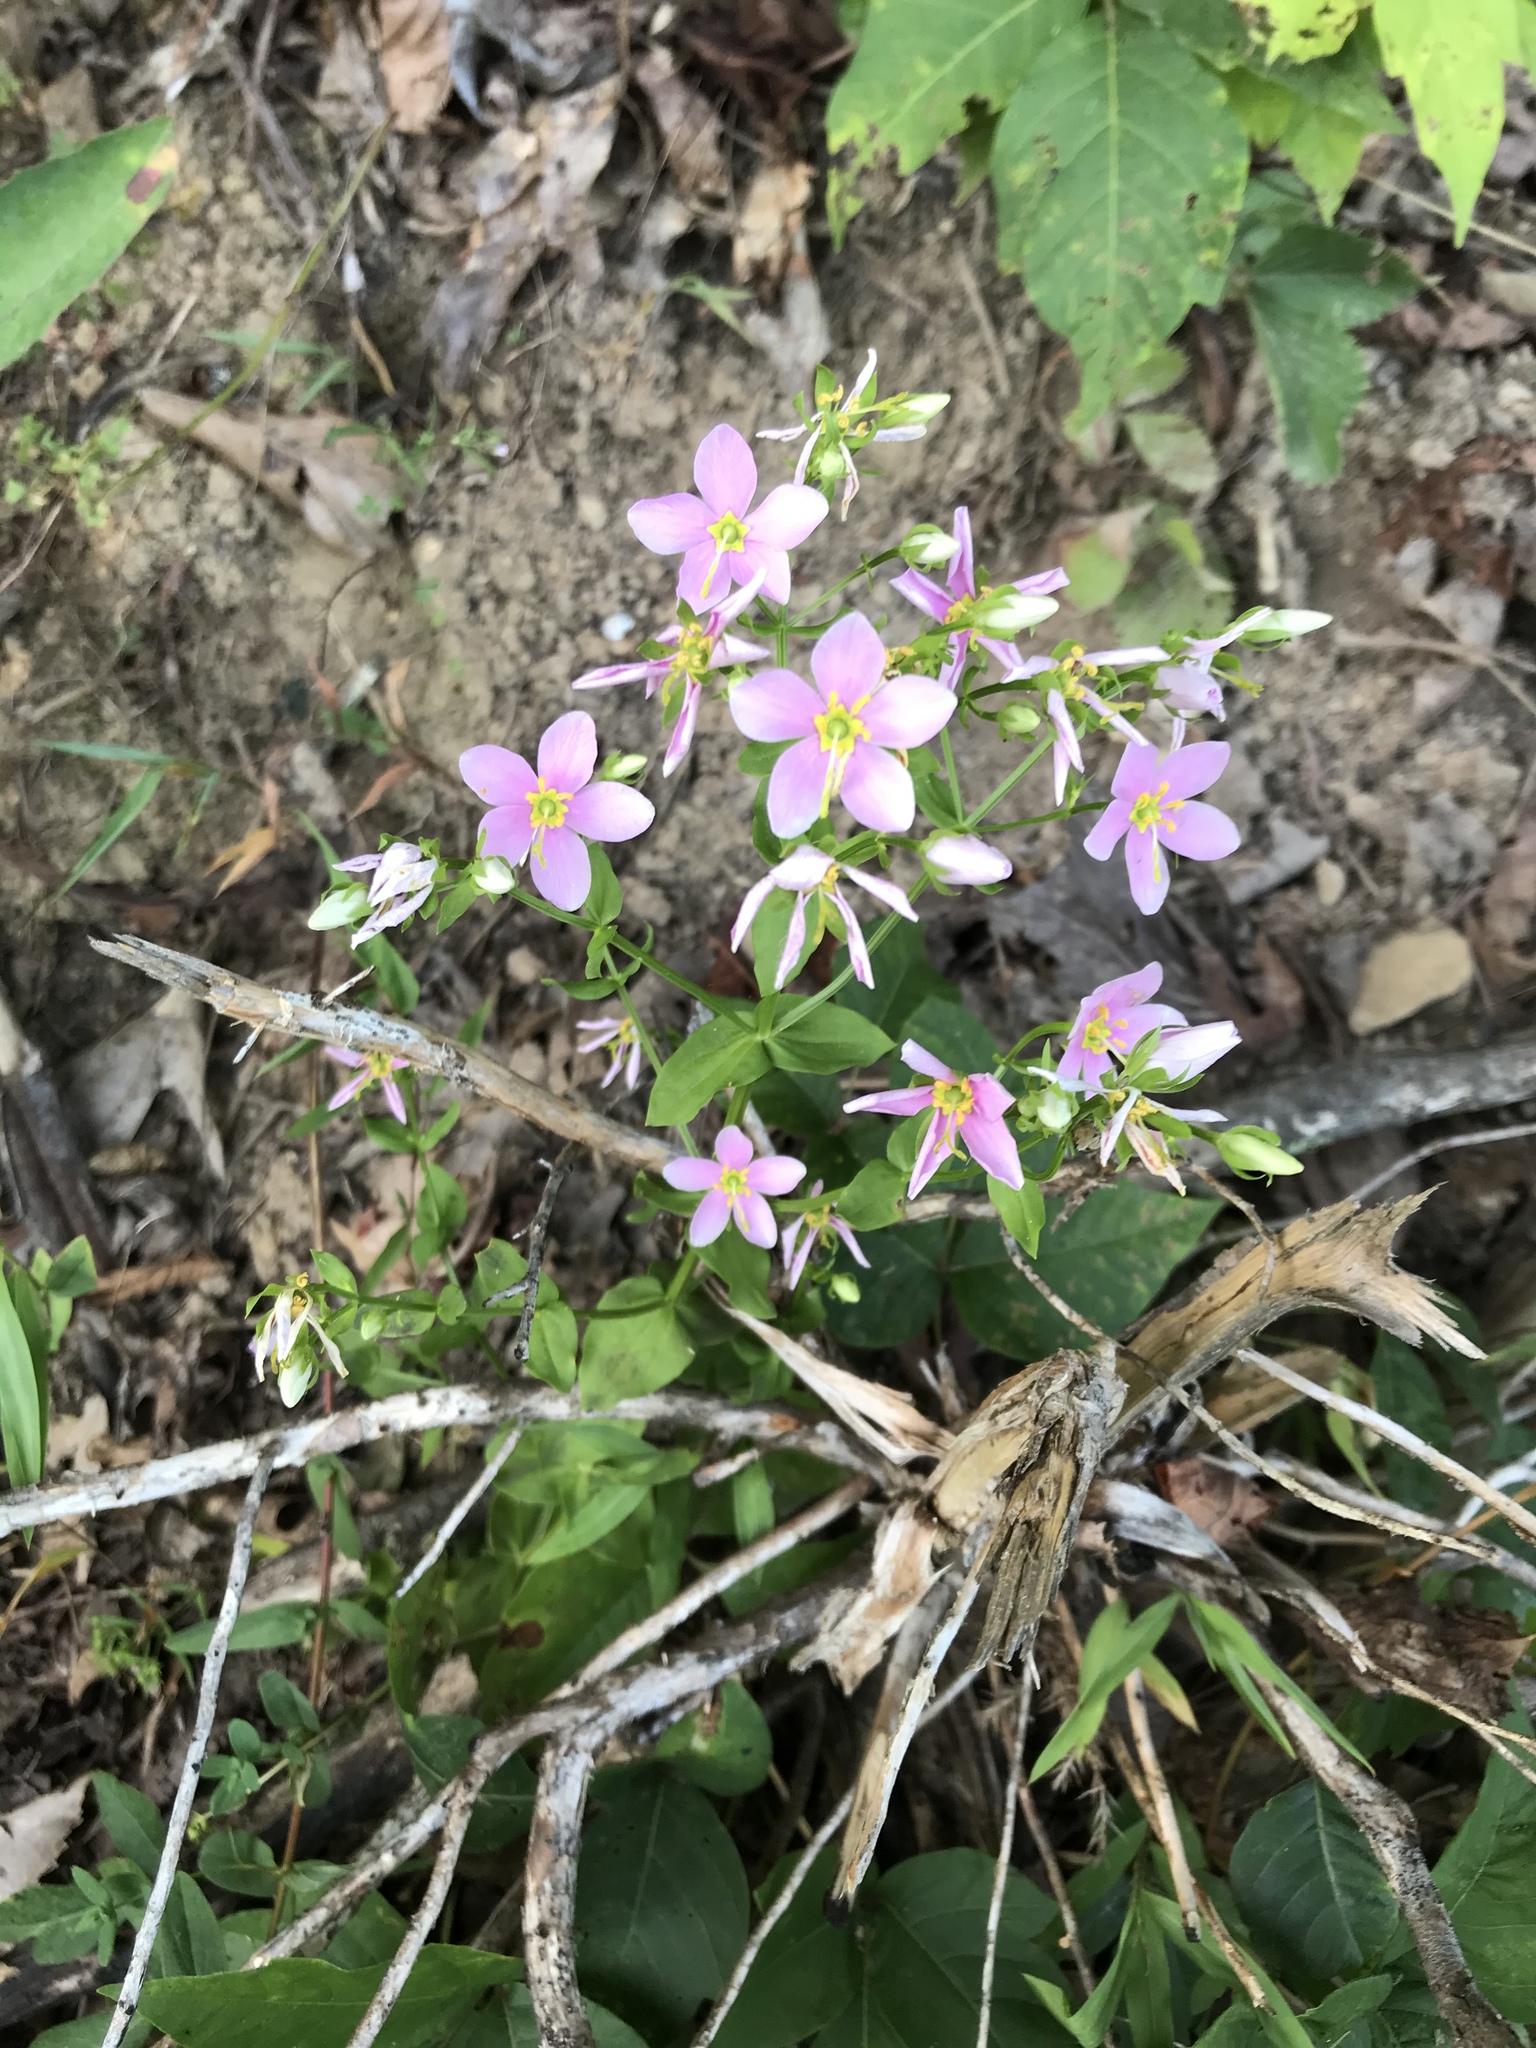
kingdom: Plantae
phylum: Tracheophyta
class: Magnoliopsida
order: Gentianales
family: Gentianaceae
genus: Sabatia
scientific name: Sabatia angularis
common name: Rose-pink
